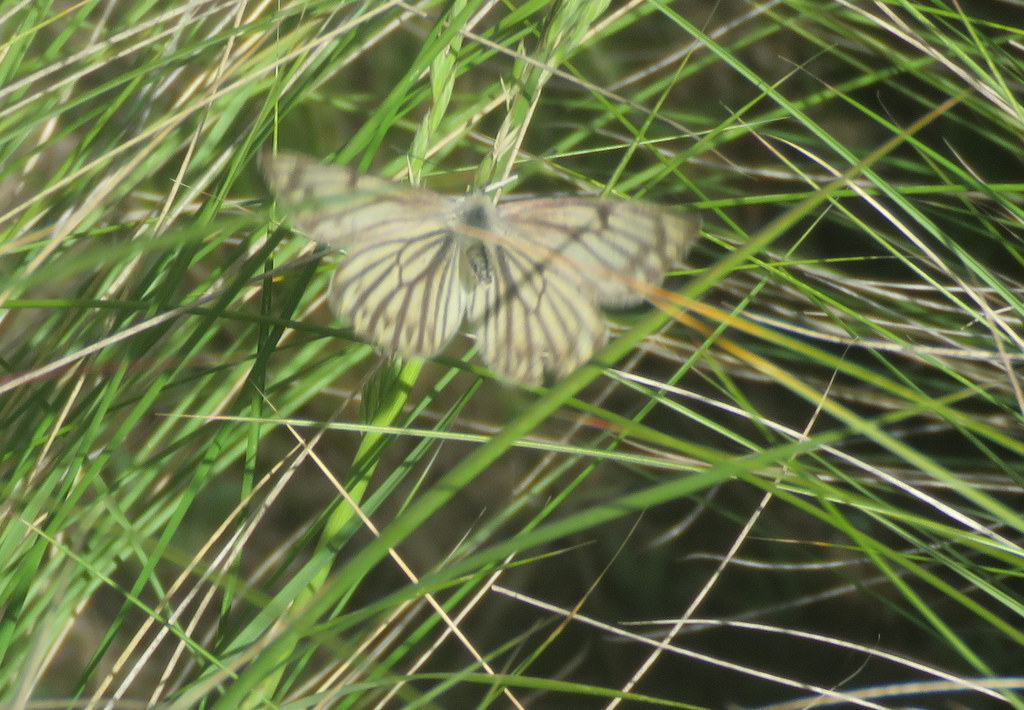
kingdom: Animalia
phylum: Arthropoda
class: Insecta
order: Lepidoptera
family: Pieridae
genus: Tatochila
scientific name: Tatochila stigmadice
